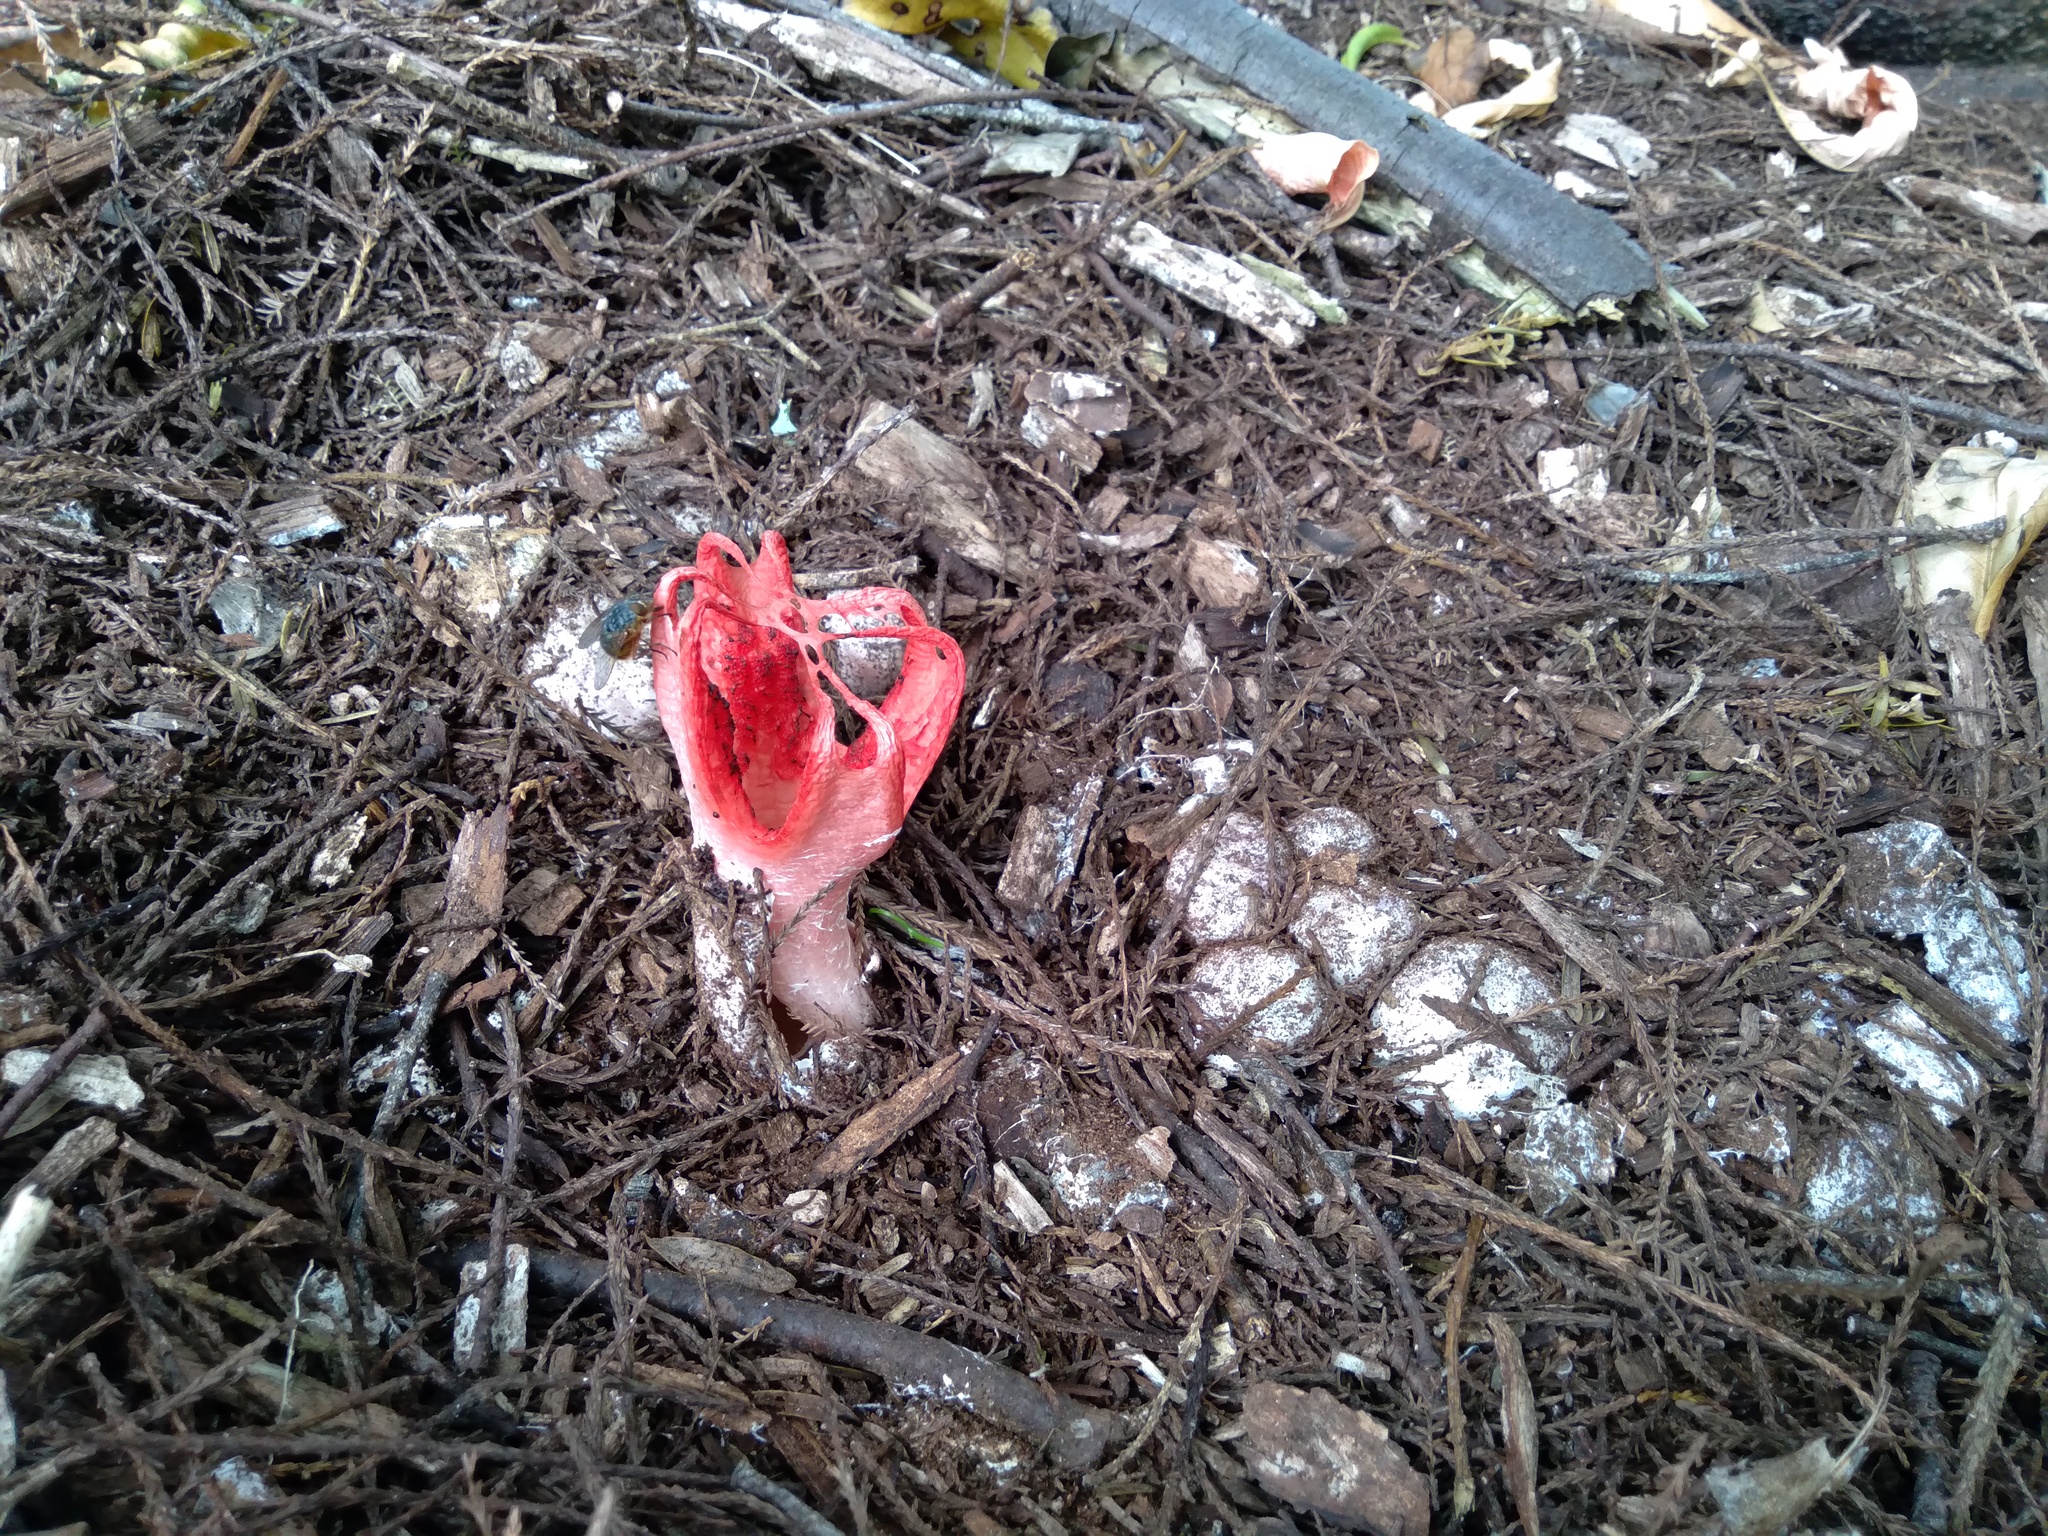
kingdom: Fungi
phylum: Basidiomycota
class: Agaricomycetes
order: Phallales
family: Phallaceae
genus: Clathrus
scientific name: Clathrus archeri
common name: Devil's fingers
